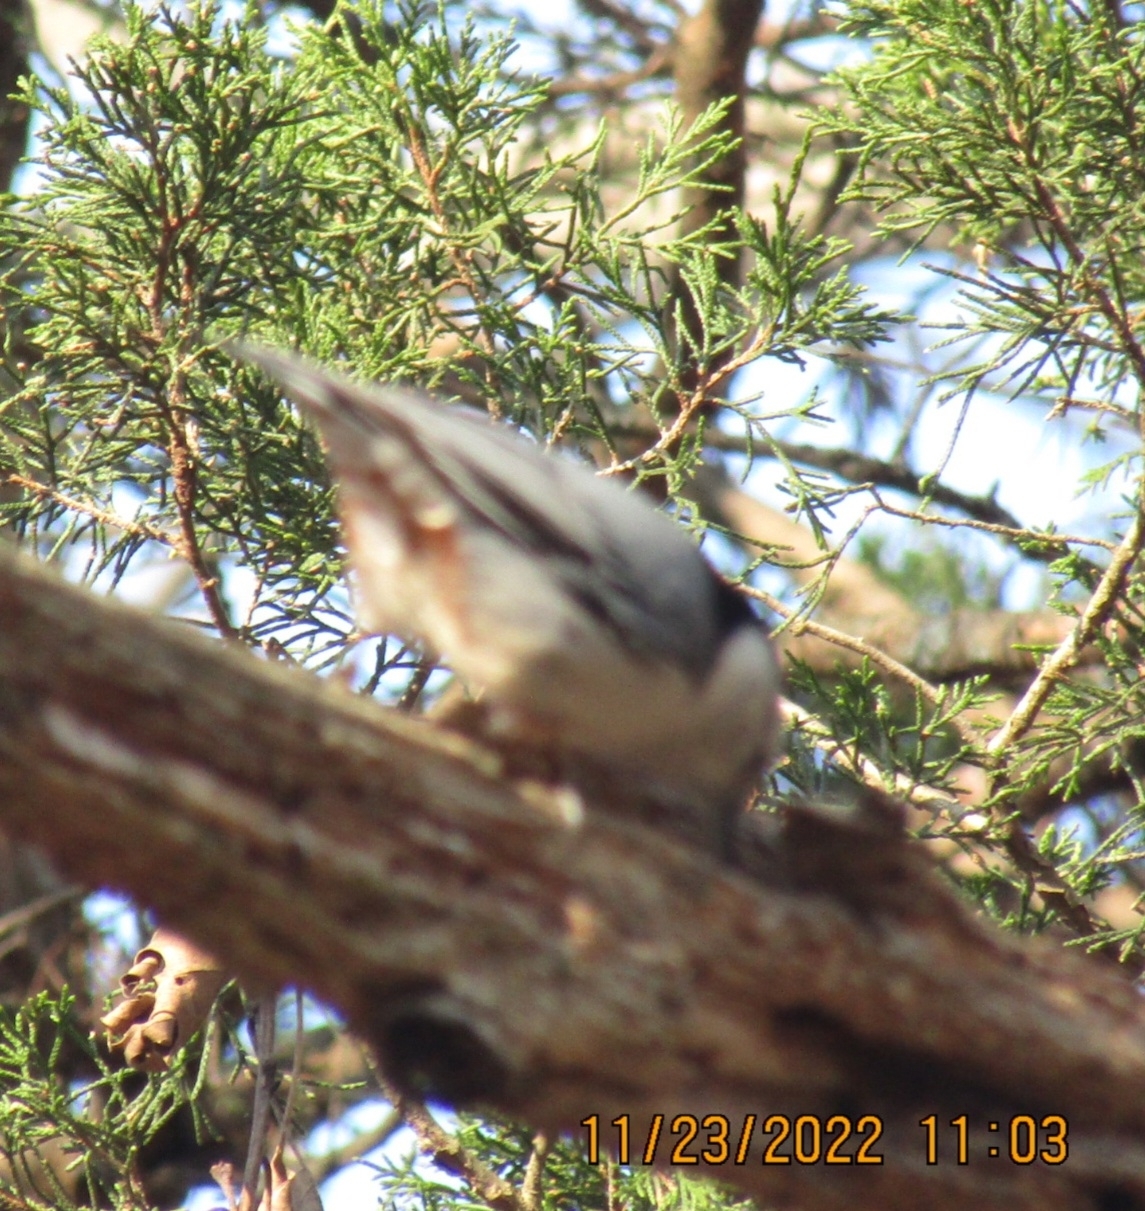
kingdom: Animalia
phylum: Chordata
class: Aves
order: Passeriformes
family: Sittidae
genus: Sitta
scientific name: Sitta carolinensis
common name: White-breasted nuthatch
